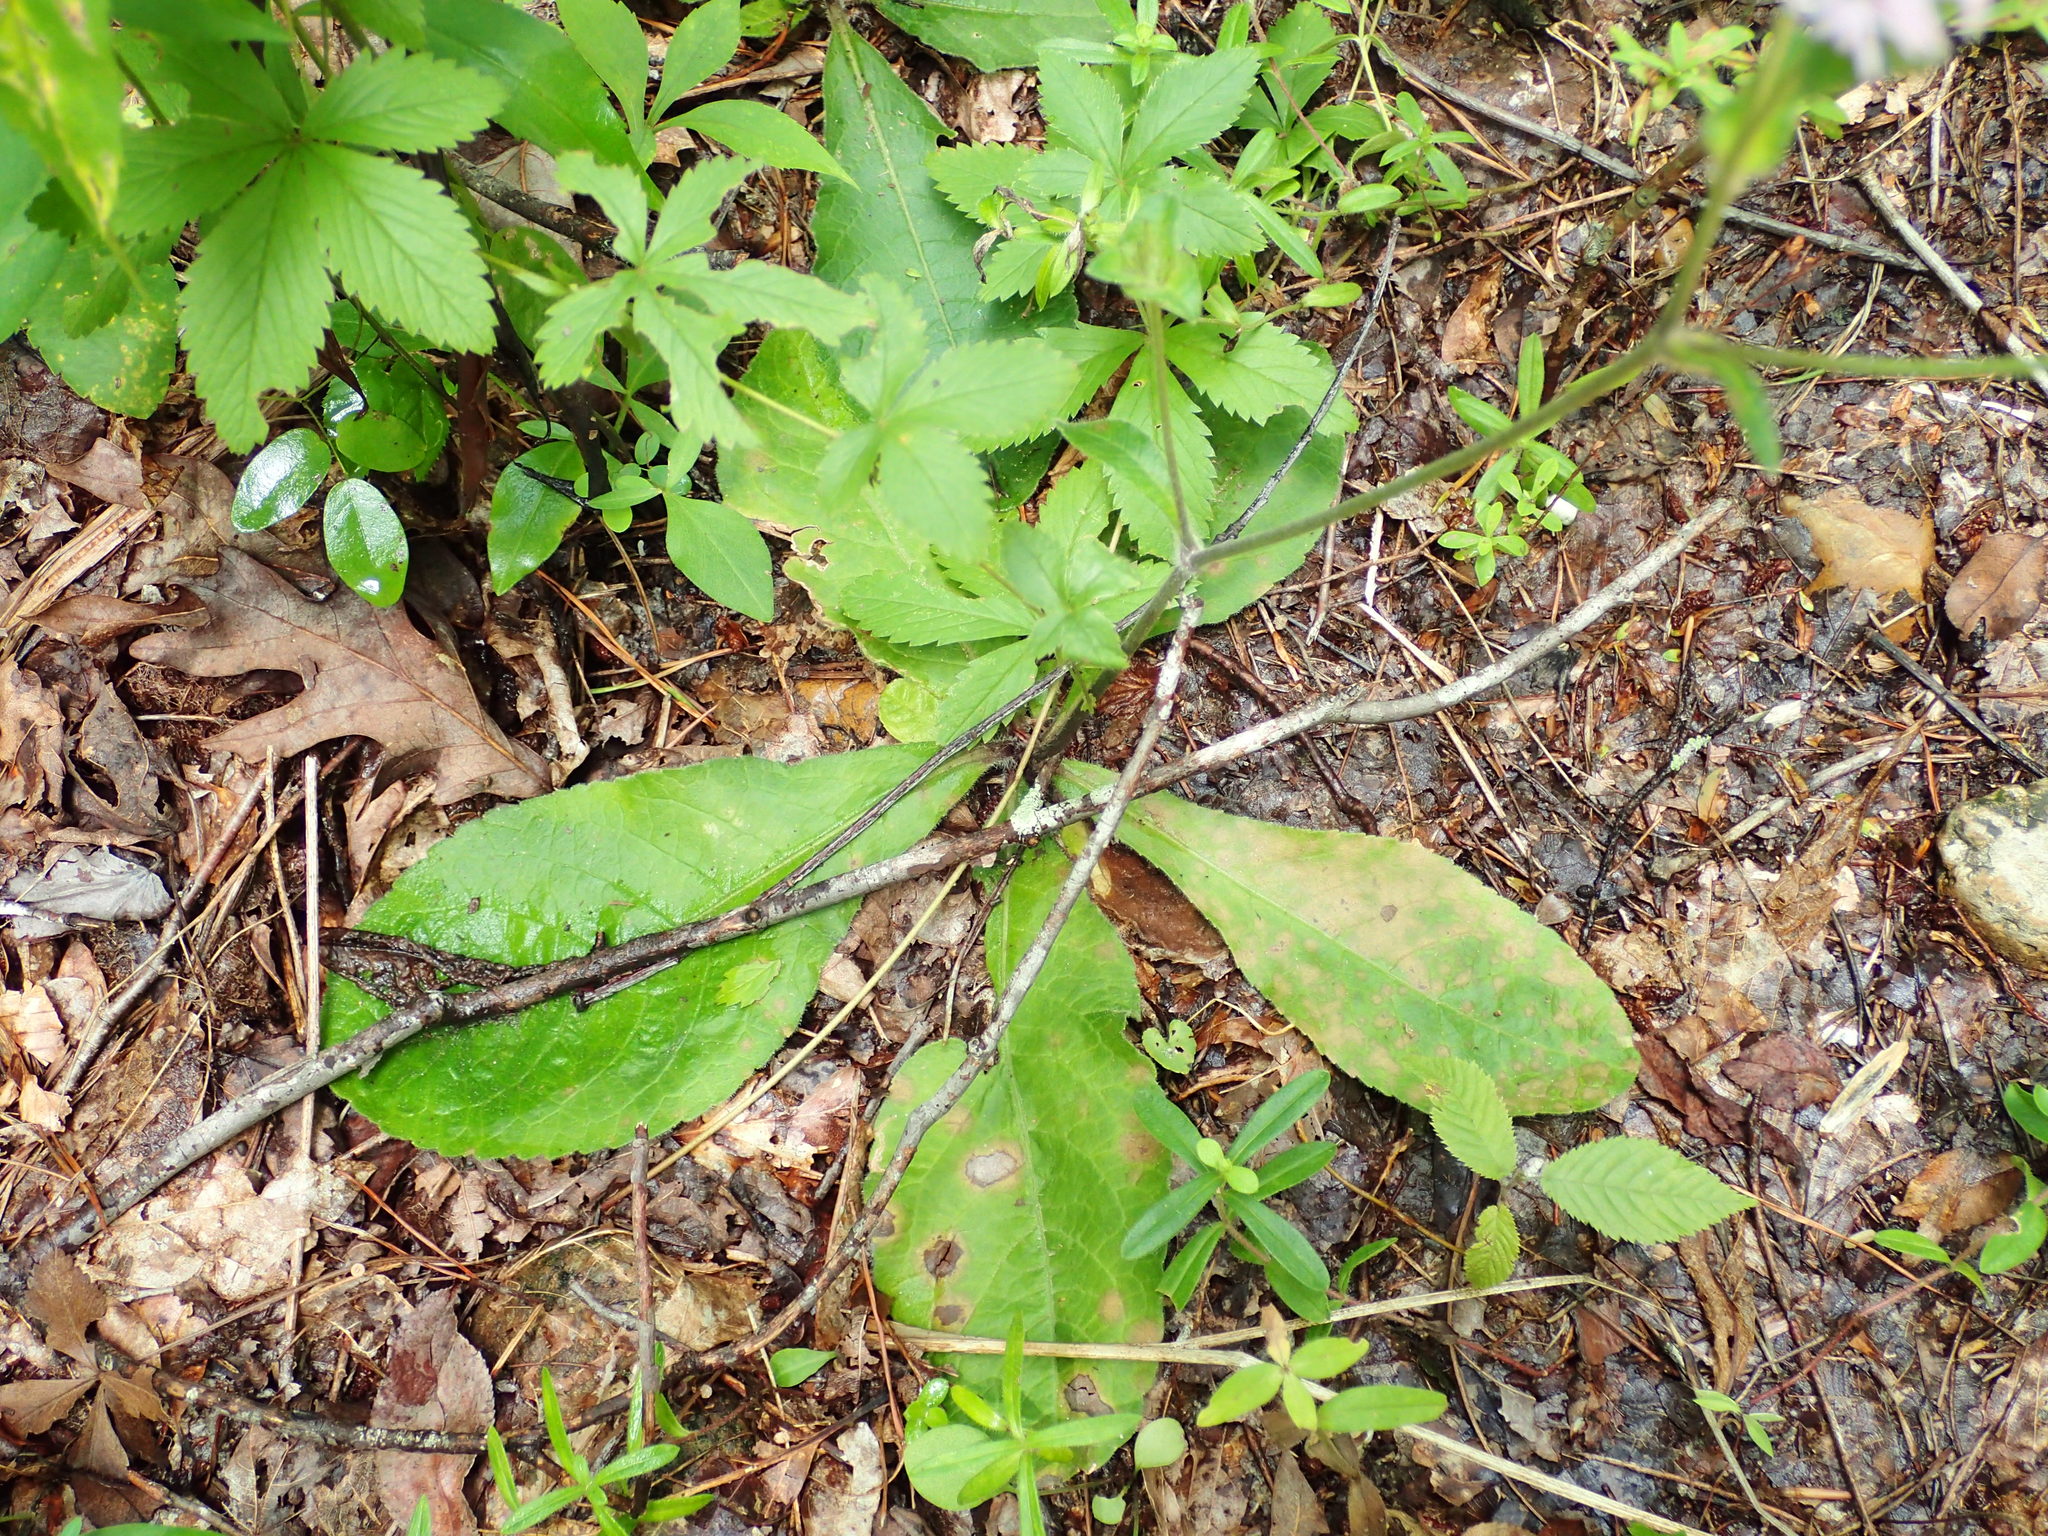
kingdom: Plantae
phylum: Tracheophyta
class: Magnoliopsida
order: Asterales
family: Asteraceae
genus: Elephantopus
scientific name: Elephantopus tomentosus
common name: Tobacco-weed
